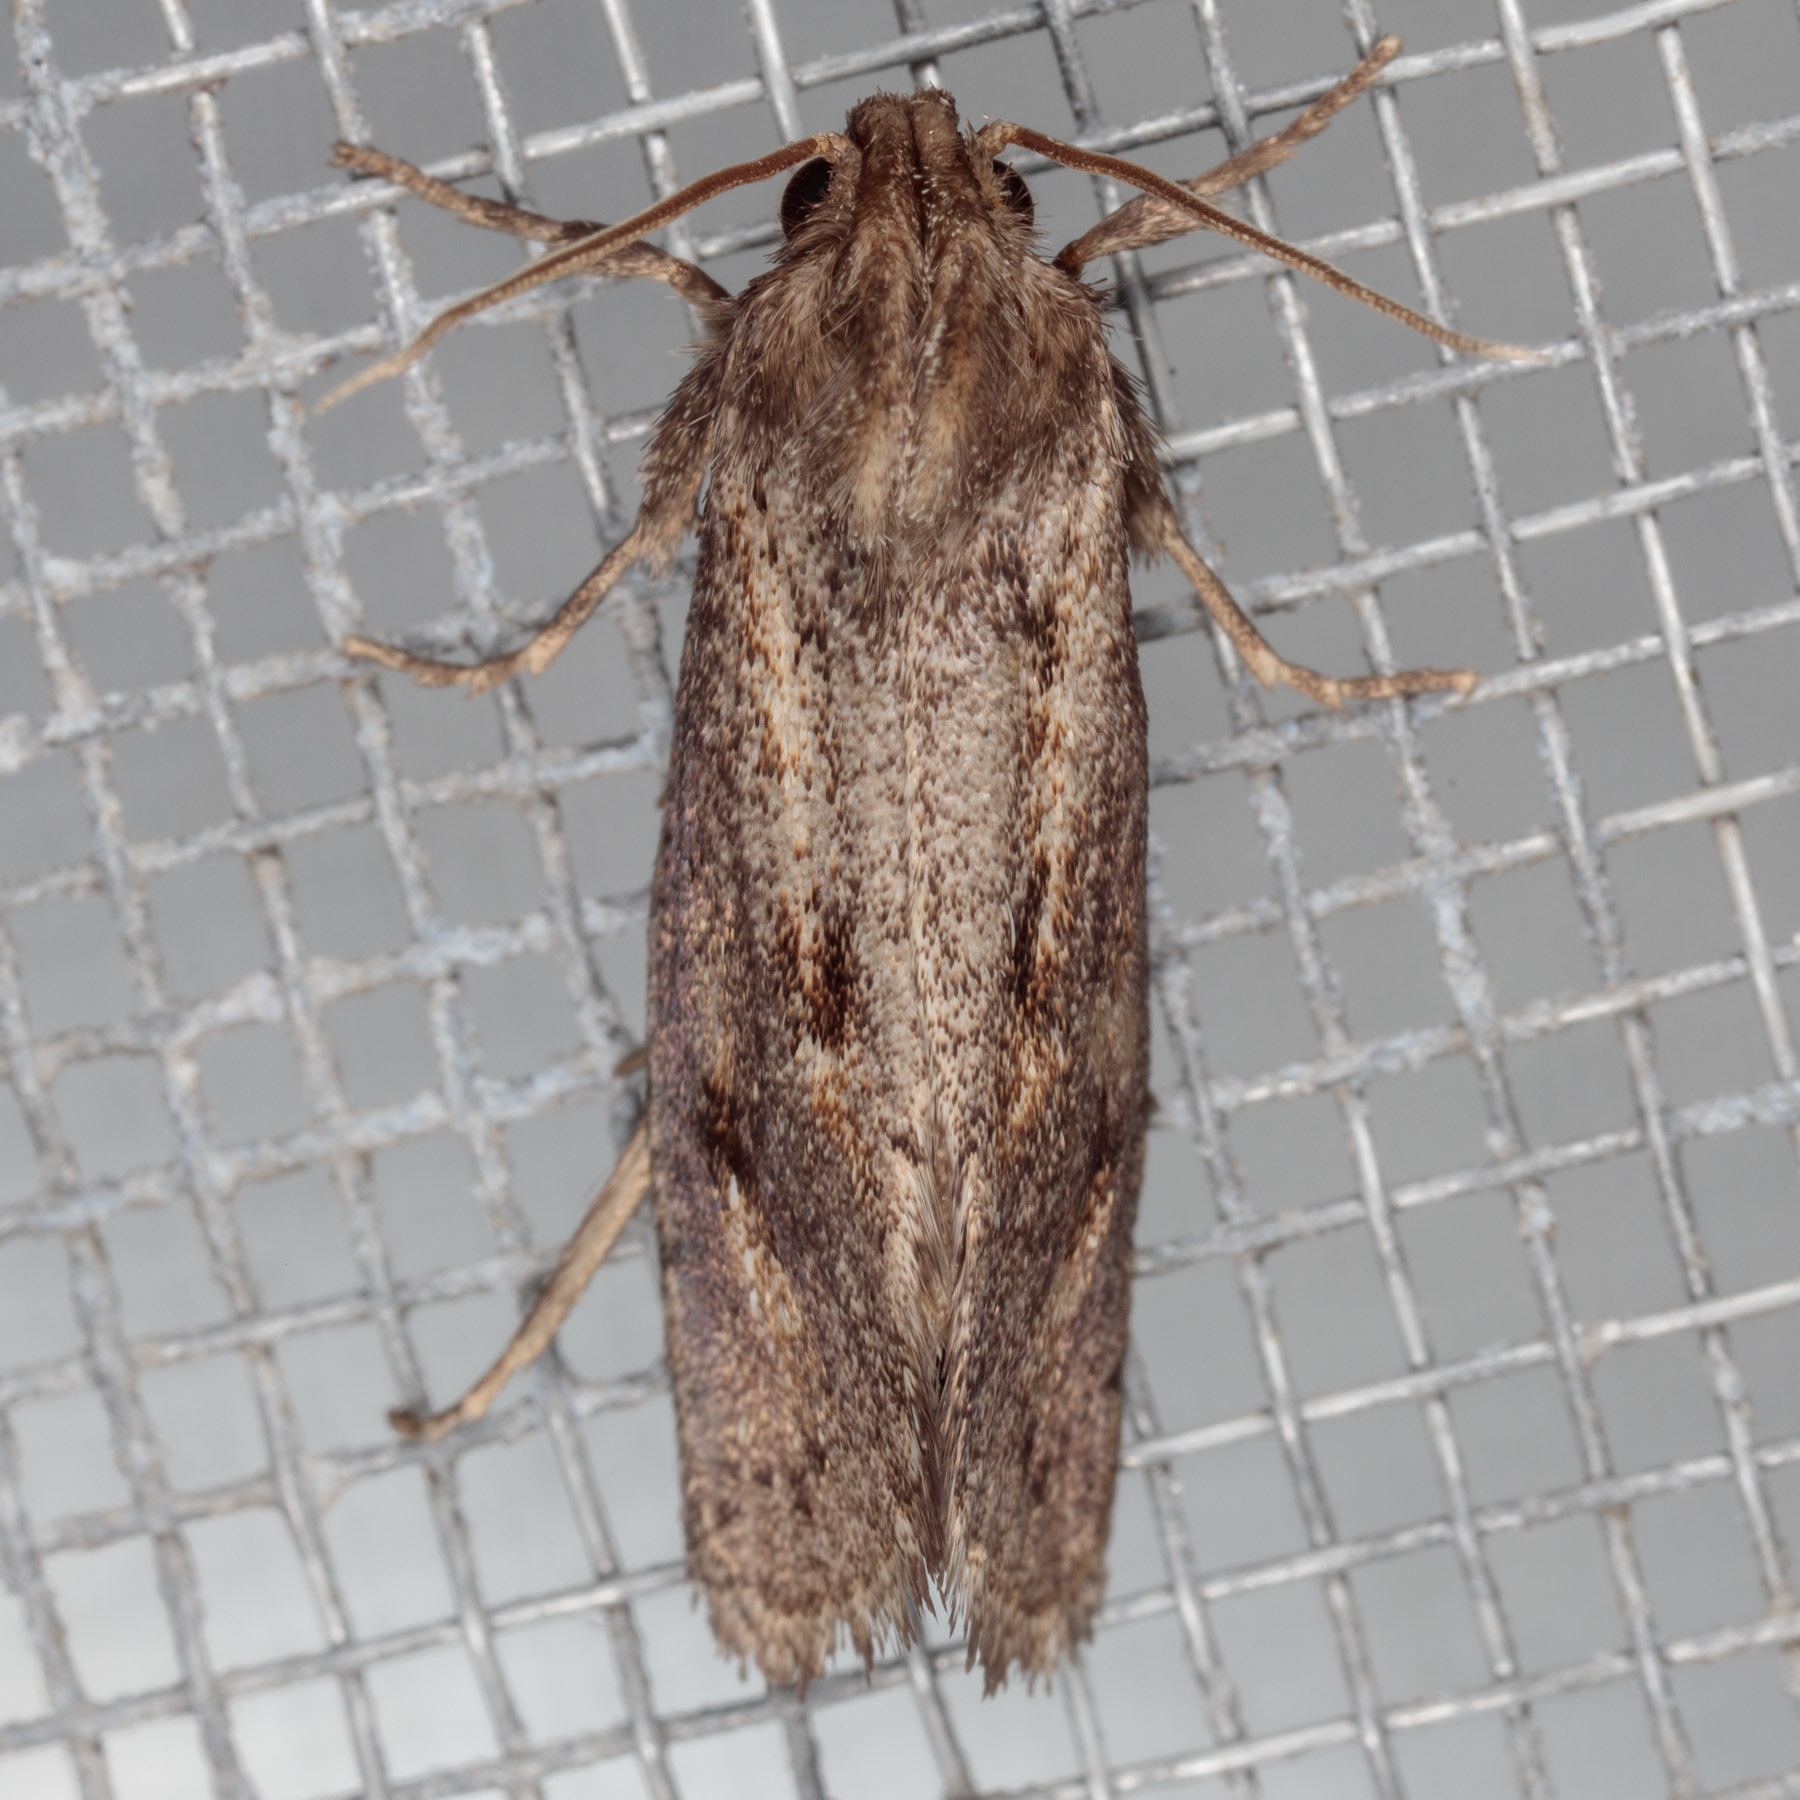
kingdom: Animalia
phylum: Arthropoda
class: Insecta
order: Lepidoptera
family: Tineidae
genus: Acrolophus
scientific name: Acrolophus popeanella
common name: Clemens' grass tubeworm moth
